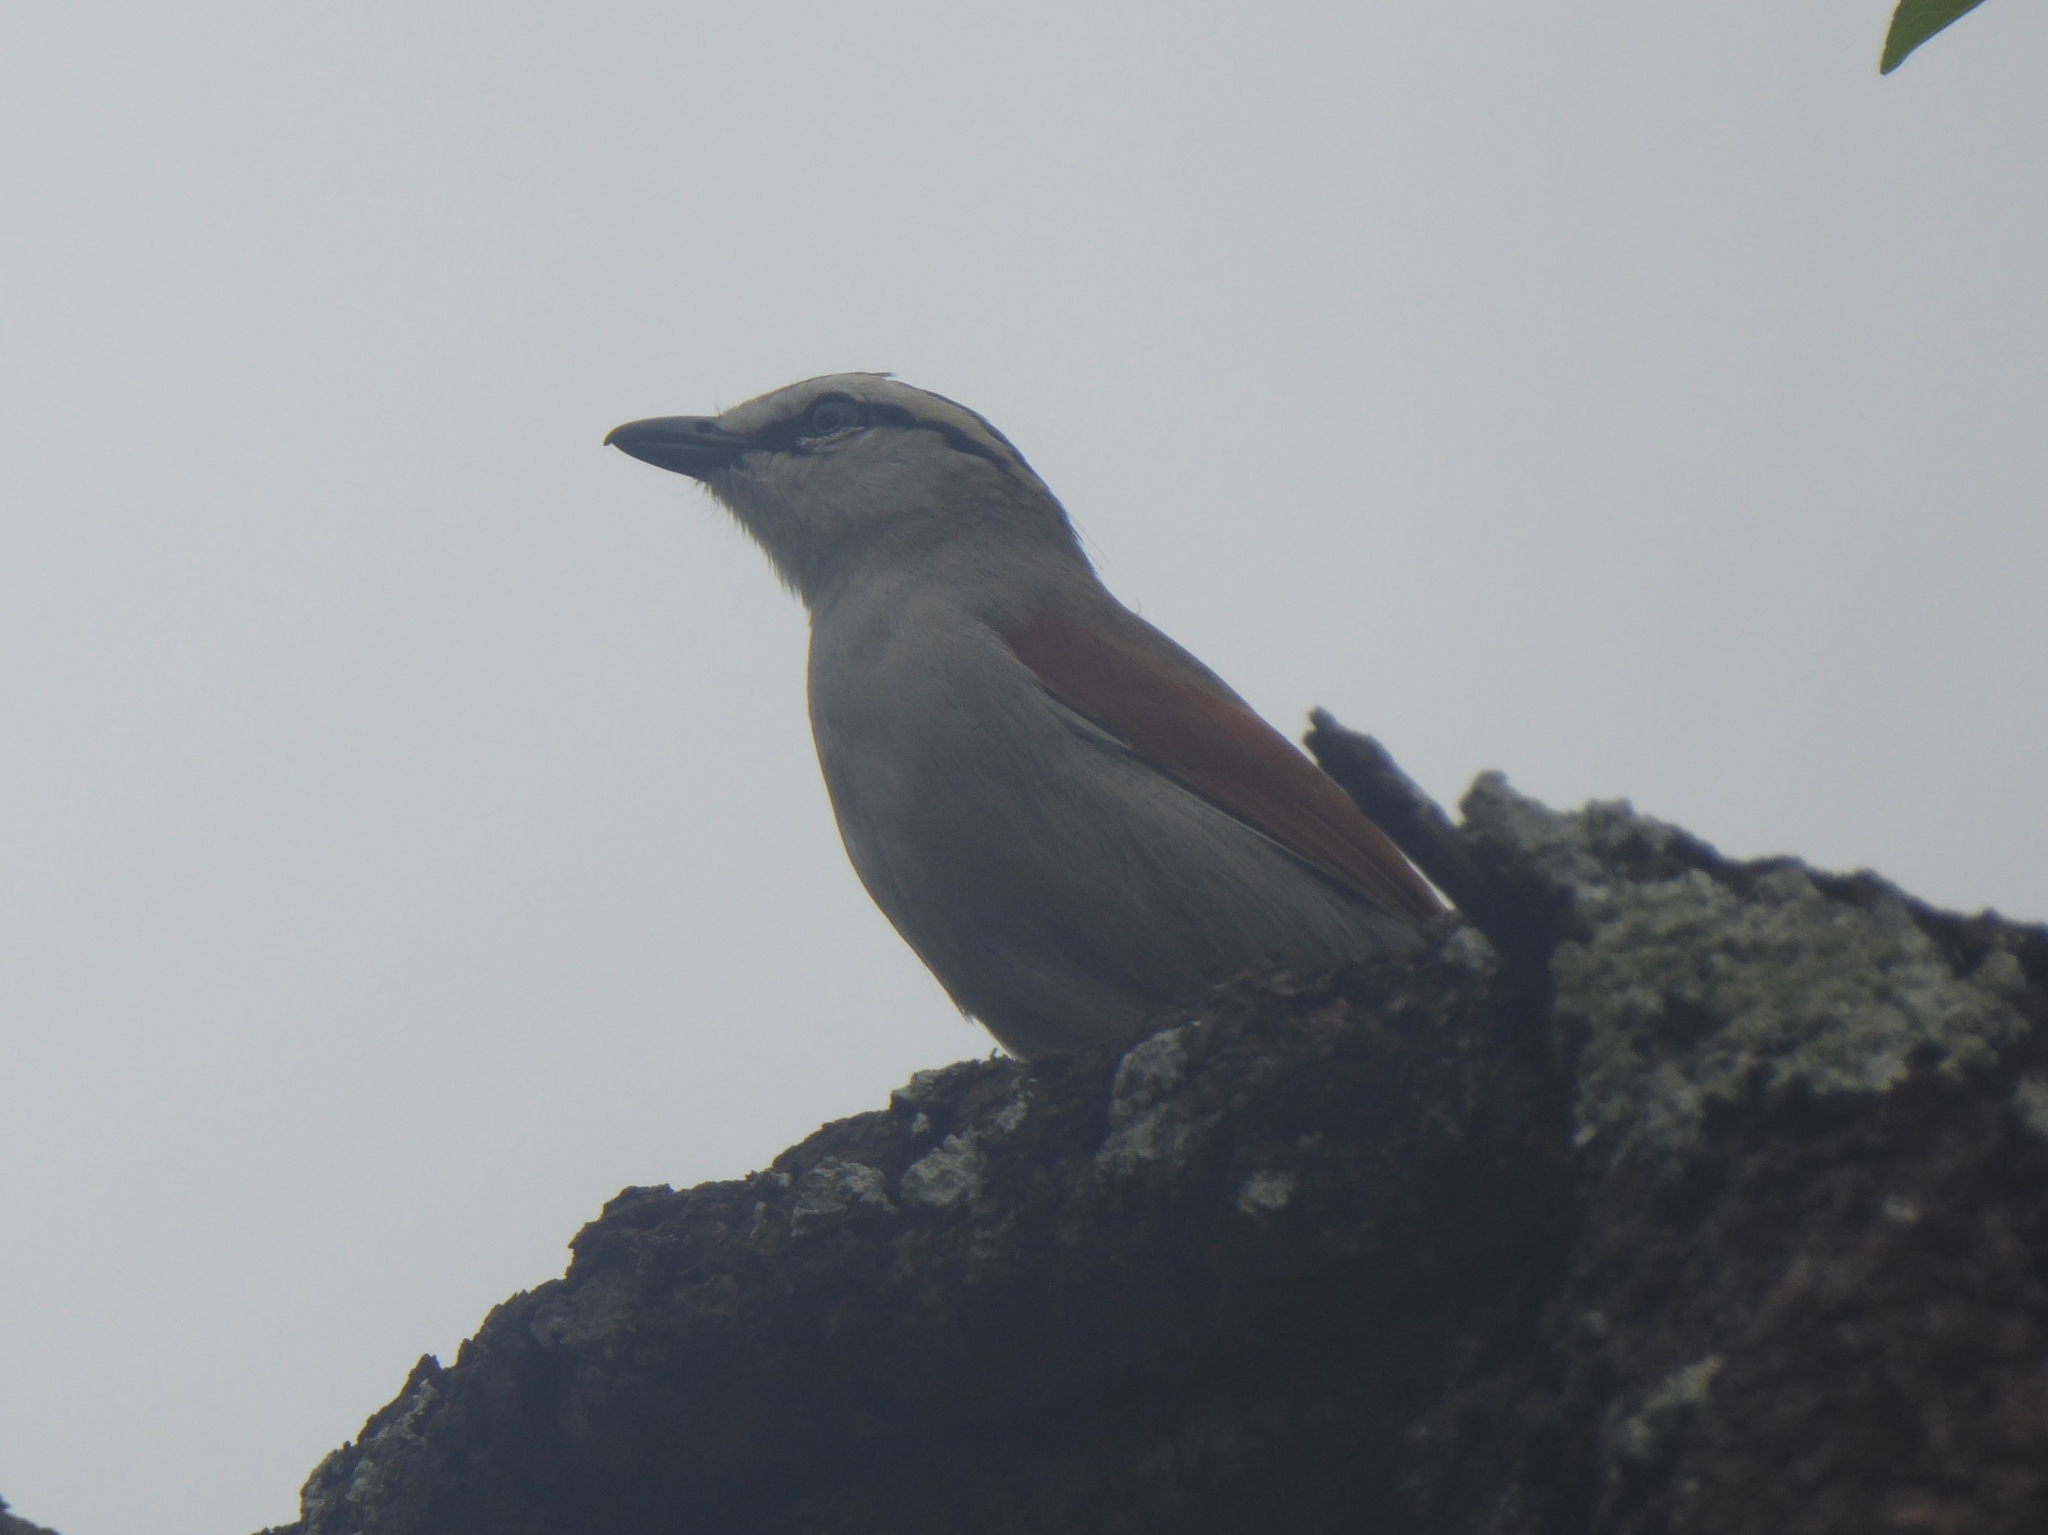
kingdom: Animalia
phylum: Chordata
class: Aves
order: Passeriformes
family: Malaconotidae
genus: Tchagra
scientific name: Tchagra australis
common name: Brown-crowned tchagra
